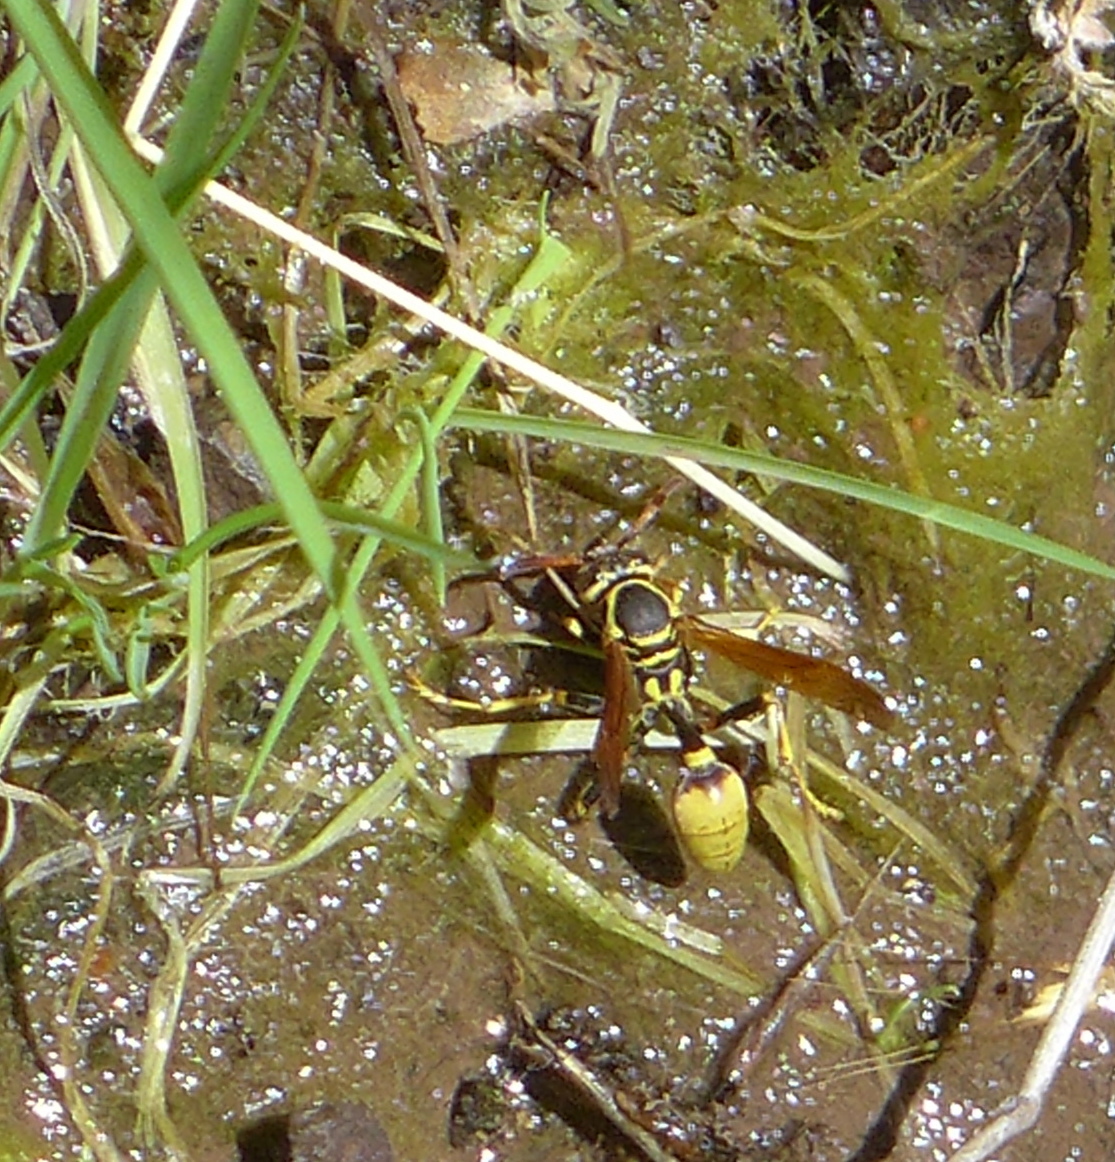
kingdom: Animalia
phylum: Arthropoda
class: Insecta
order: Hymenoptera
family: Vespidae
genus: Mischocyttarus
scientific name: Mischocyttarus flavitarsis
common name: Wasp
